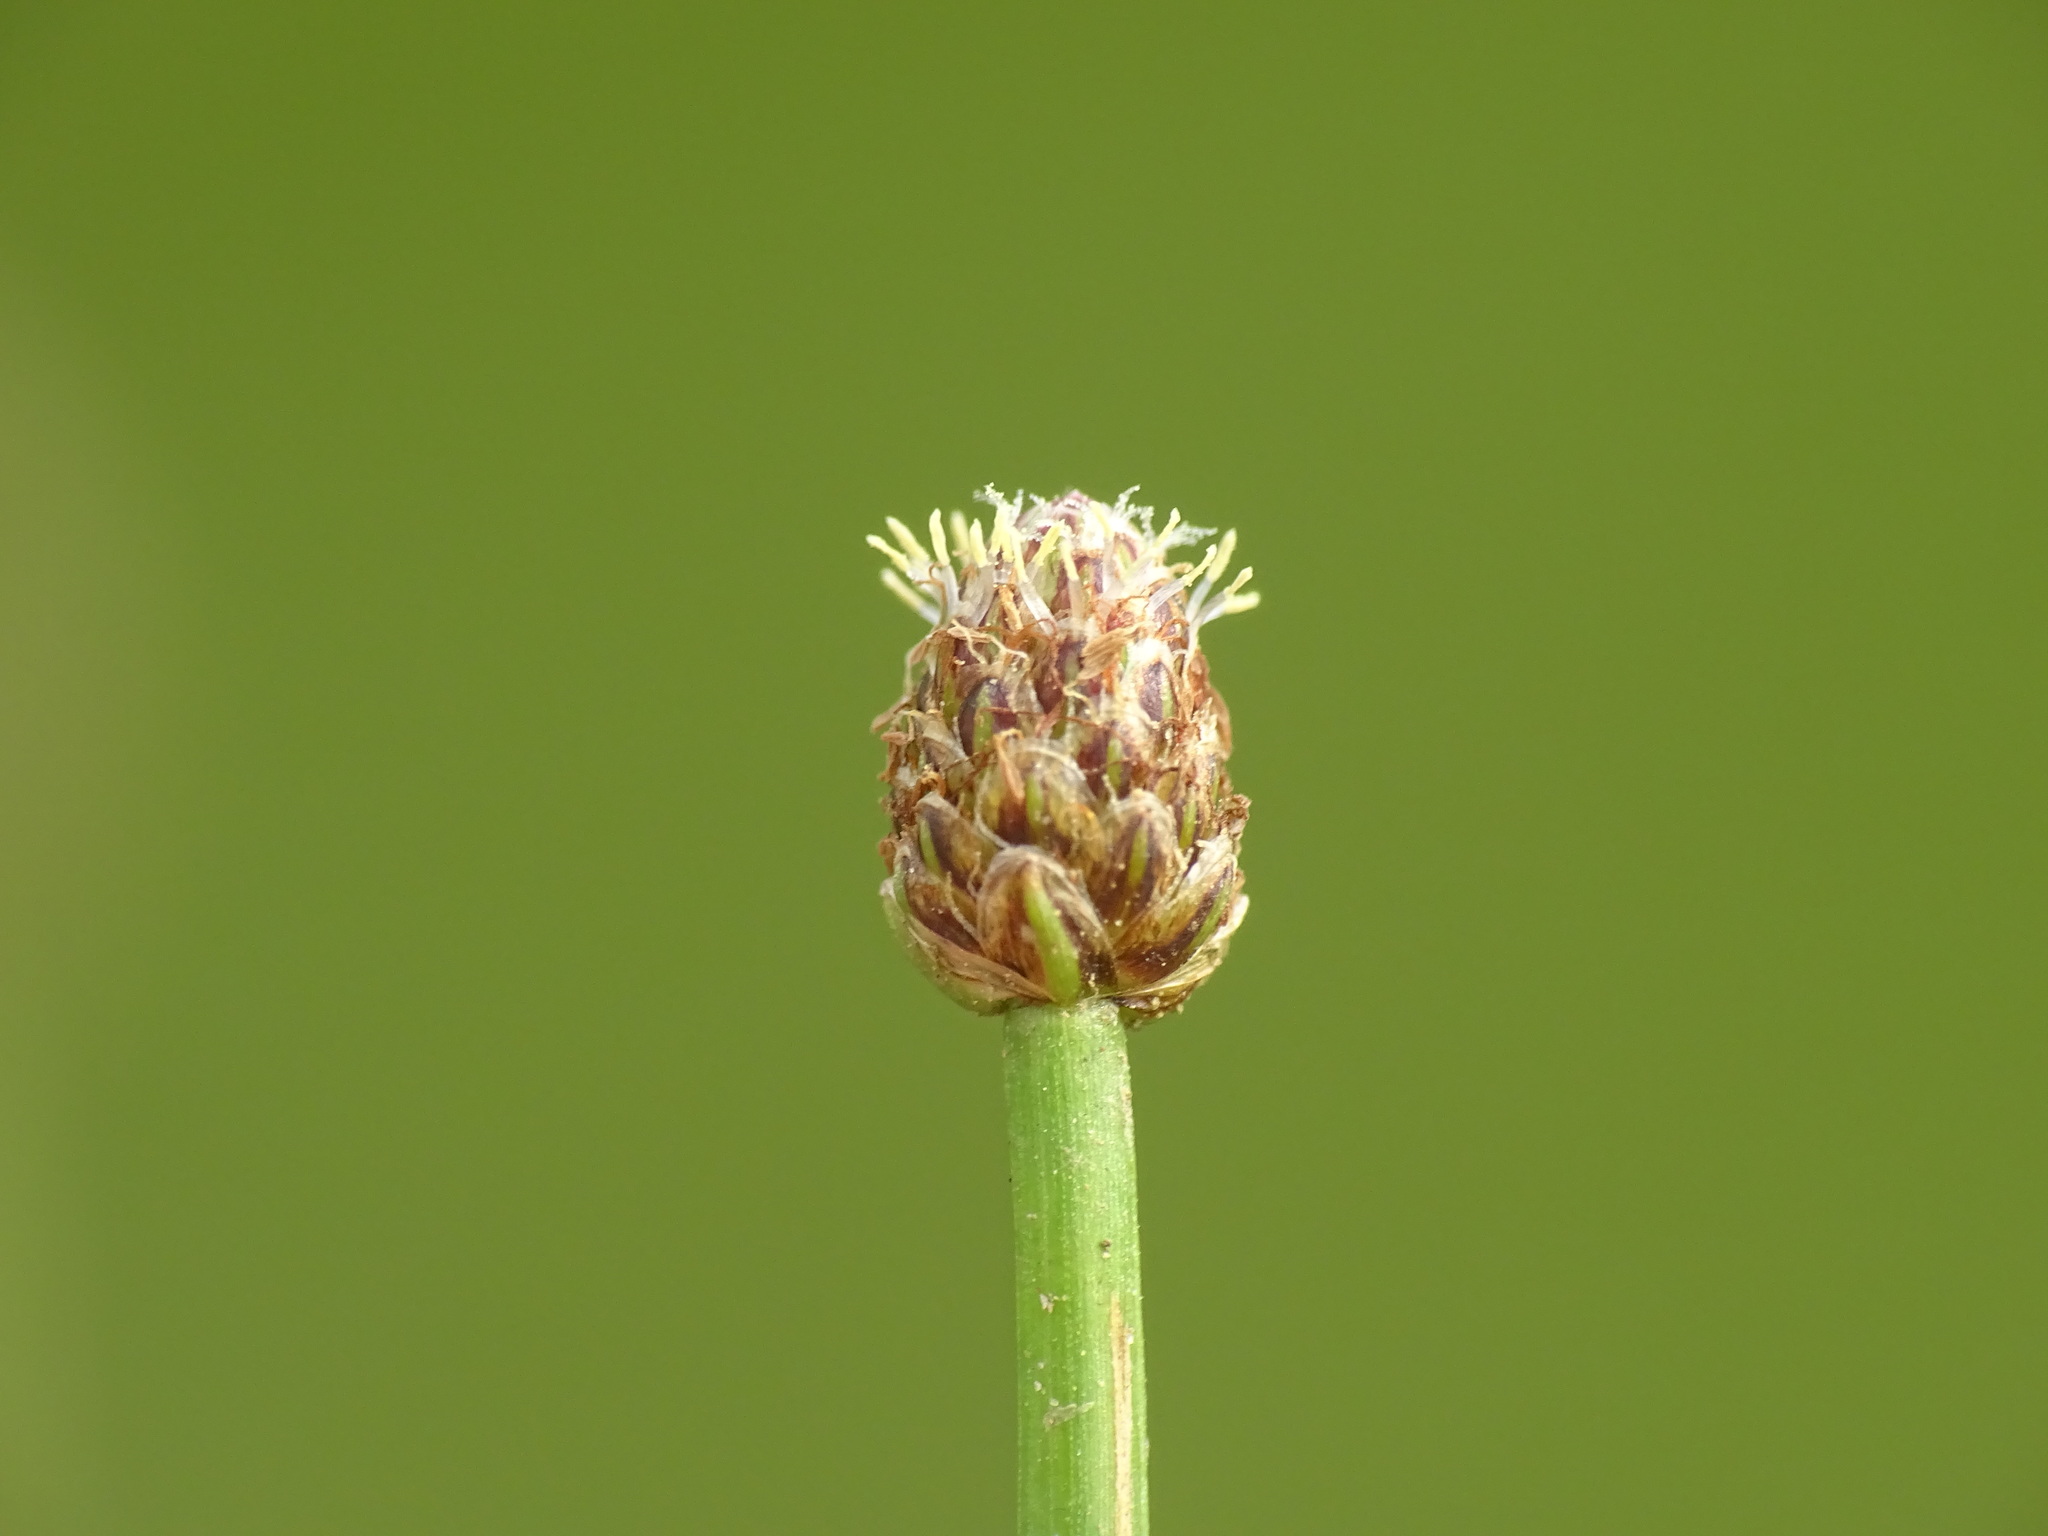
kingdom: Plantae
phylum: Tracheophyta
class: Liliopsida
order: Poales
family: Cyperaceae
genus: Eleocharis
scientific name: Eleocharis obtusa
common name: Blunt spikerush
